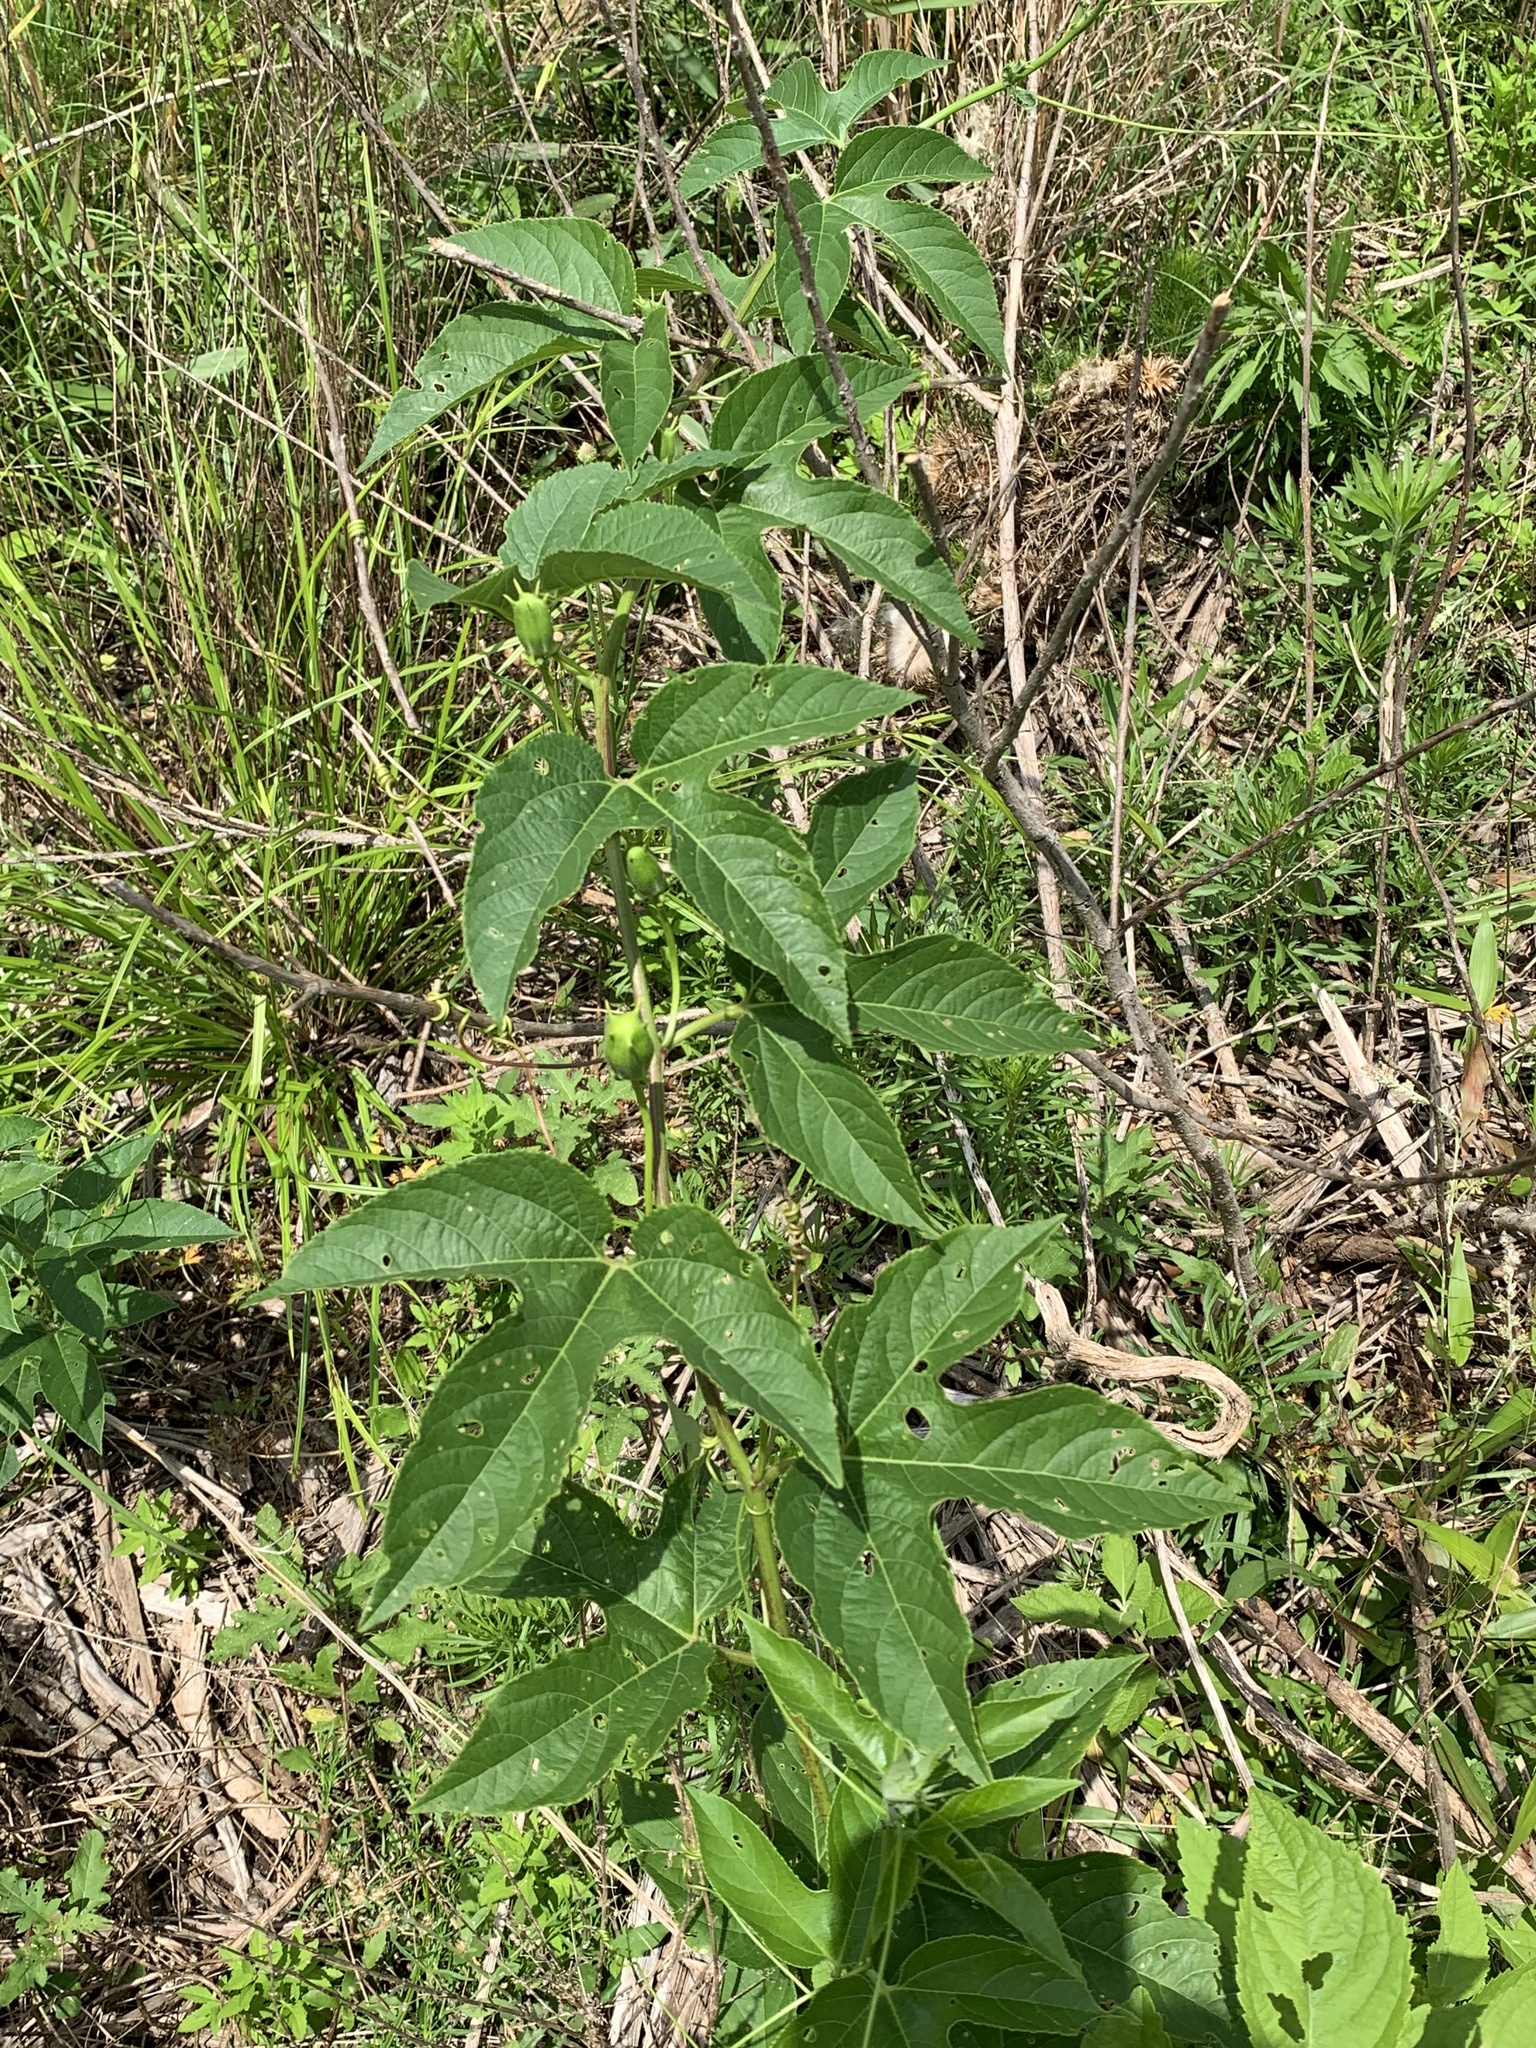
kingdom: Plantae
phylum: Tracheophyta
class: Magnoliopsida
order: Malpighiales
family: Passifloraceae
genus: Passiflora
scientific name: Passiflora incarnata
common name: Apricot-vine
